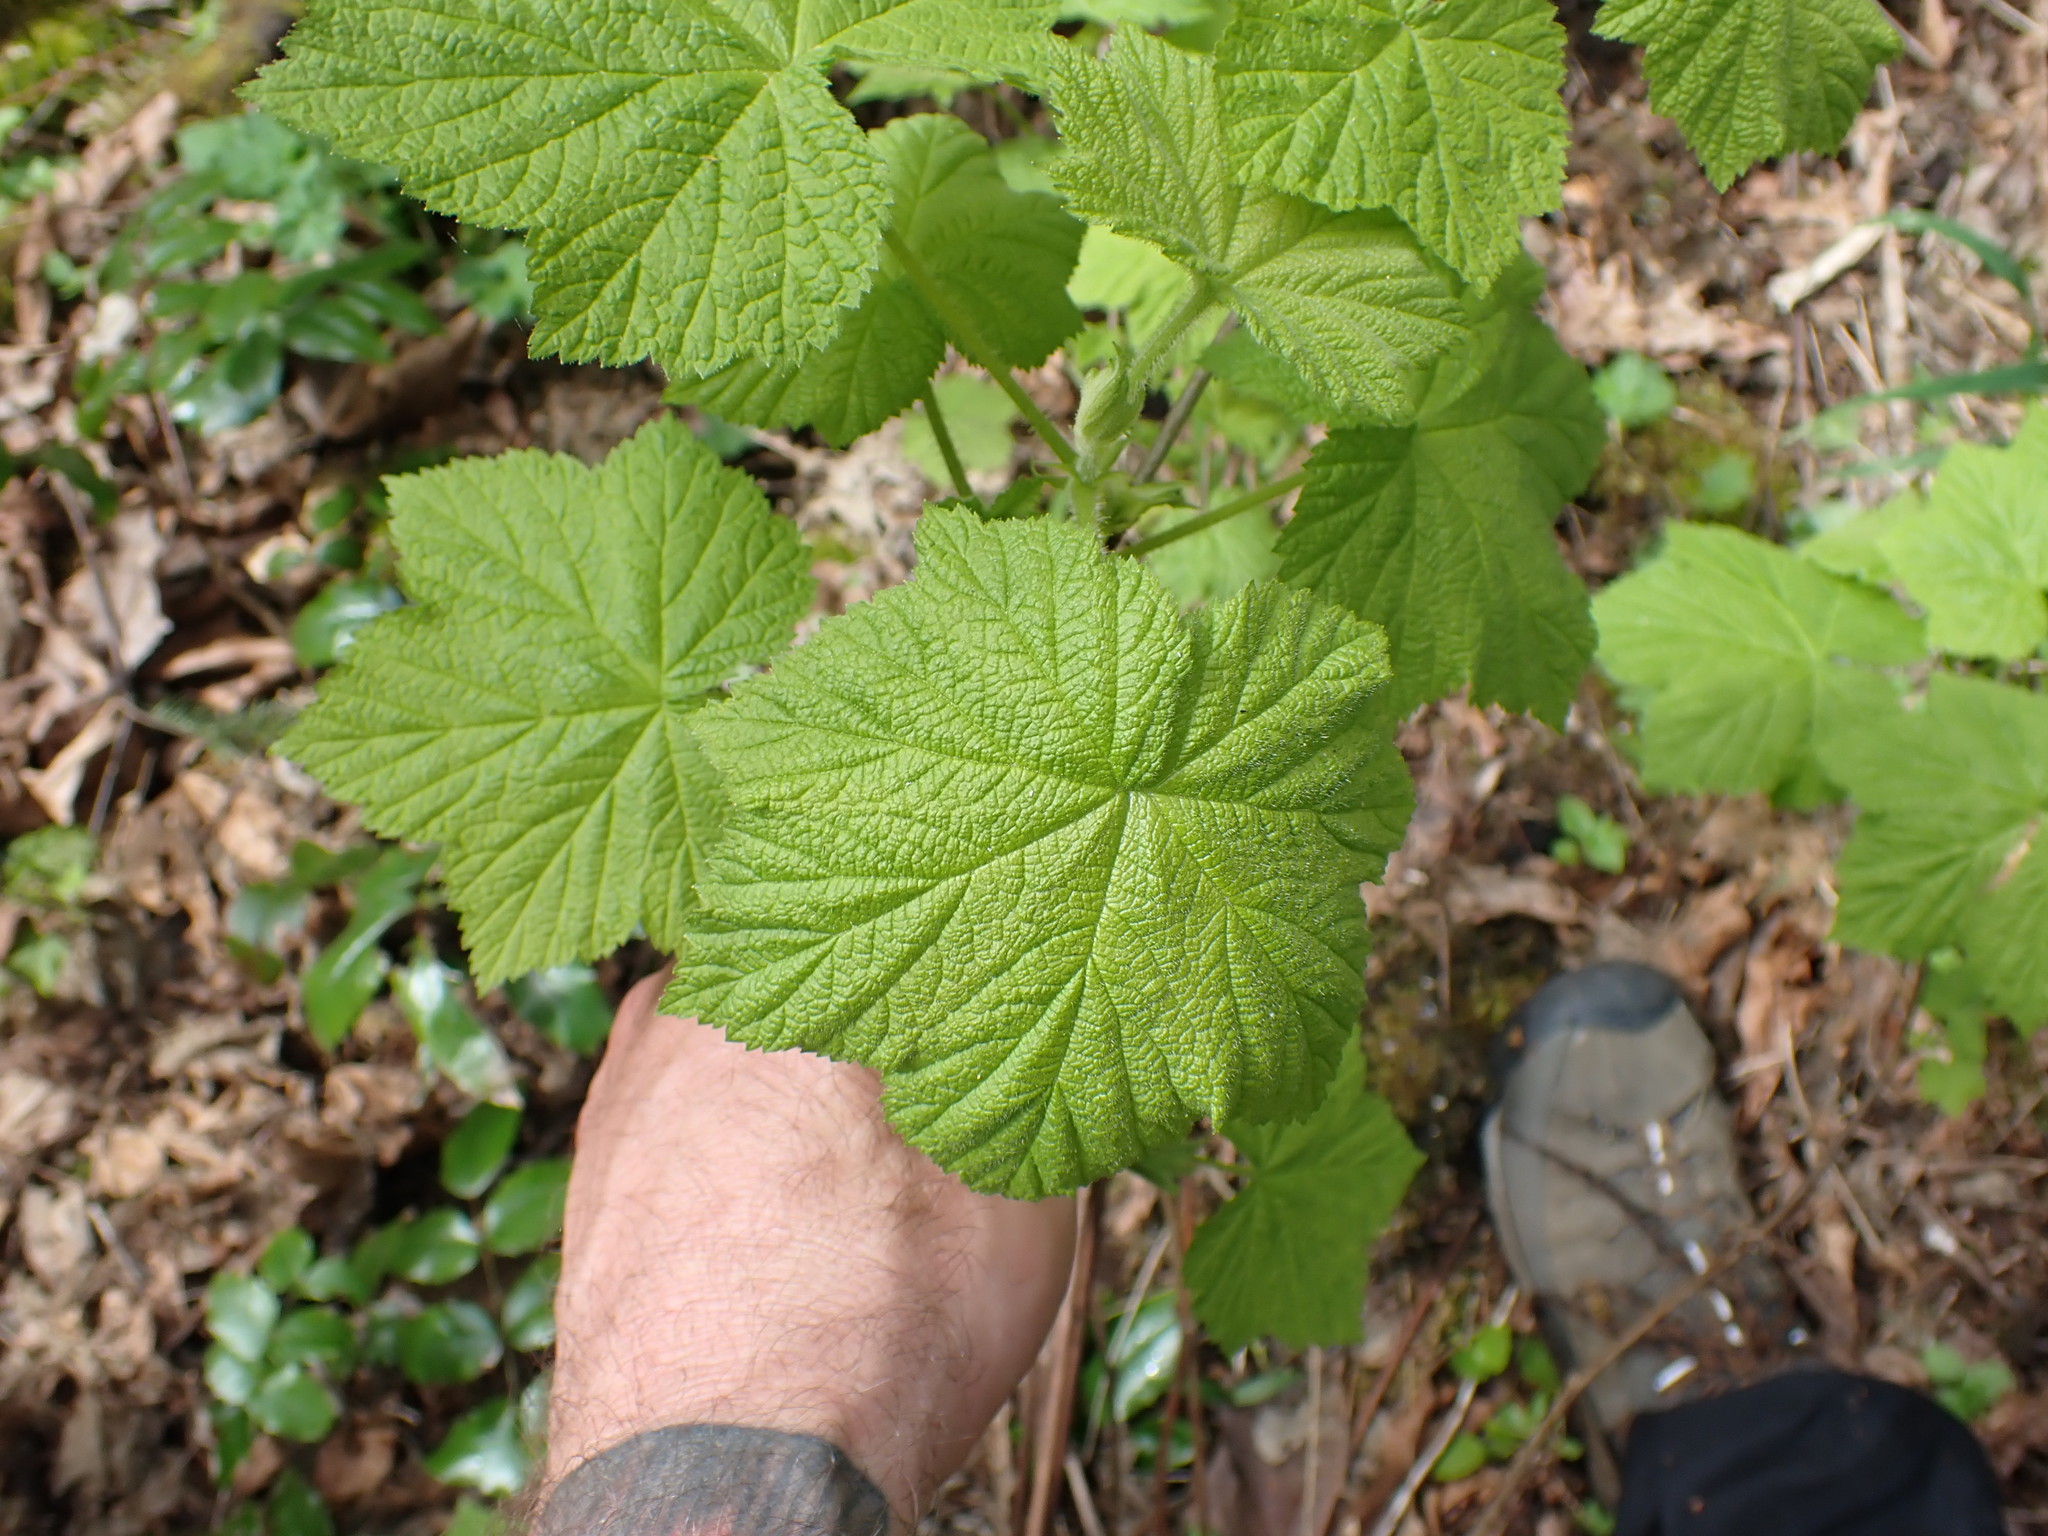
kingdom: Plantae
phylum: Tracheophyta
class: Magnoliopsida
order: Rosales
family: Rosaceae
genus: Rubus
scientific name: Rubus parviflorus
